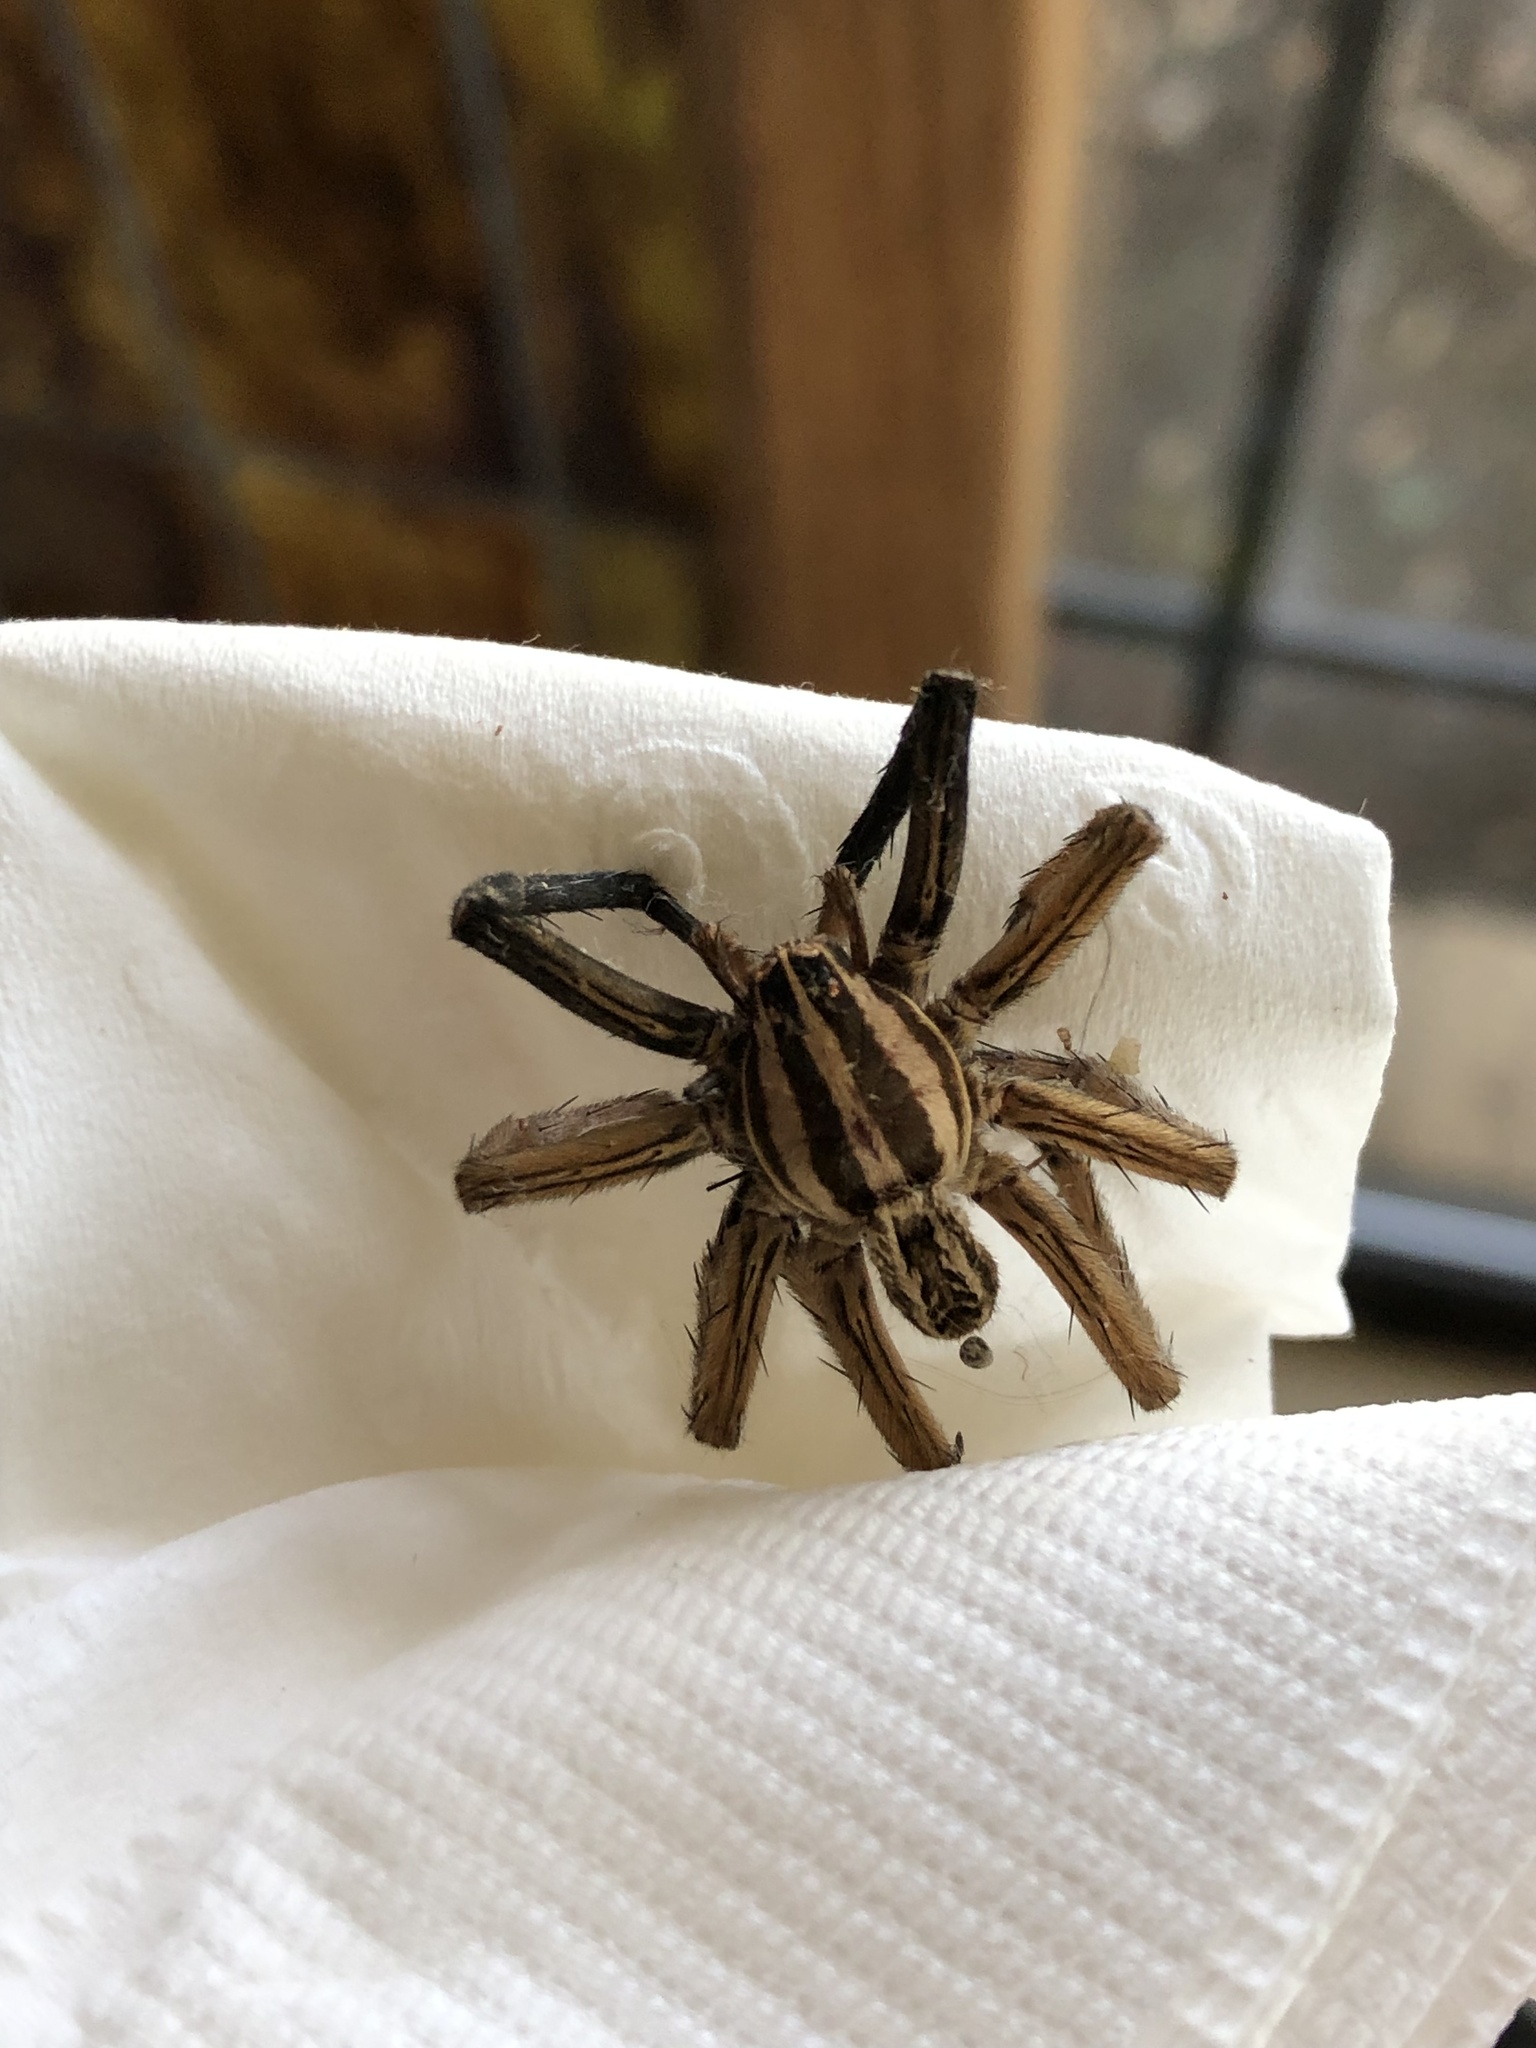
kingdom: Animalia
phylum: Arthropoda
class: Arachnida
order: Araneae
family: Lycosidae
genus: Rabidosa
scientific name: Rabidosa rabida
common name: Rabid wolf spider
